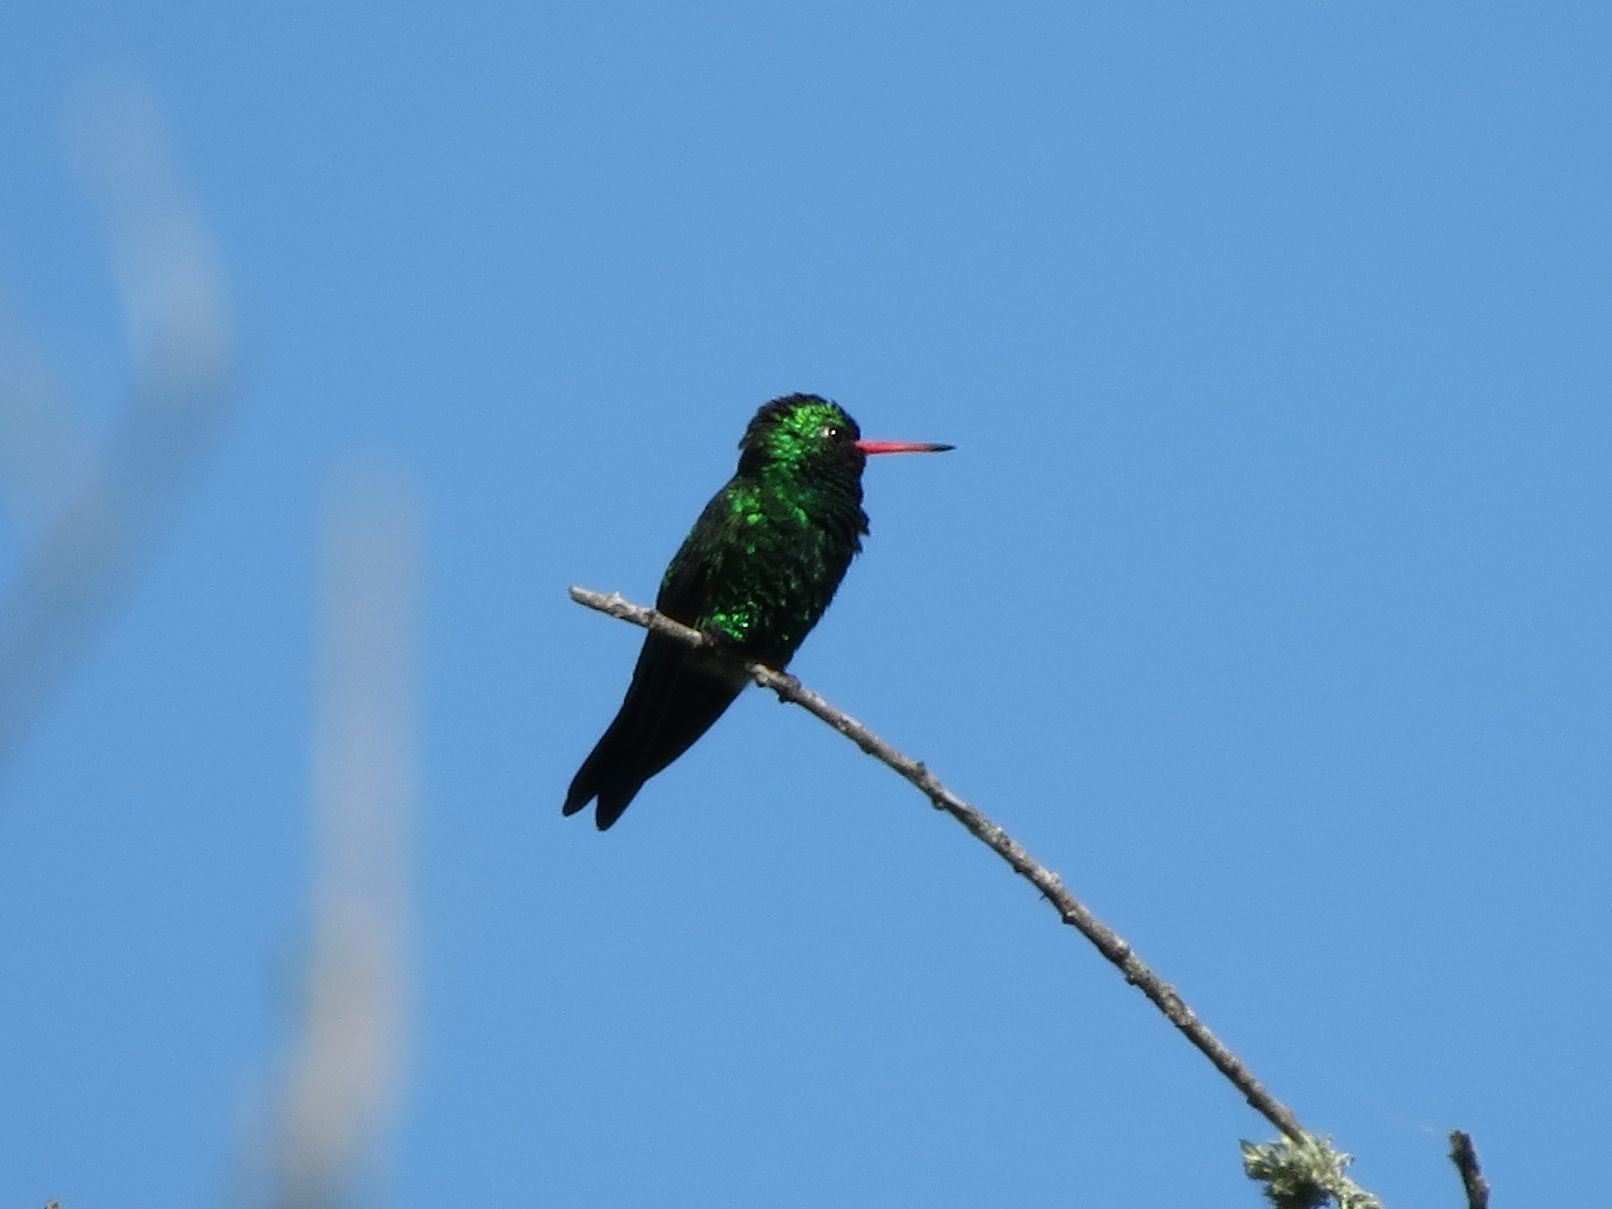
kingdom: Animalia
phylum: Chordata
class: Aves
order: Apodiformes
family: Trochilidae
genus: Chlorostilbon
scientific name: Chlorostilbon lucidus
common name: Glittering-bellied emerald
